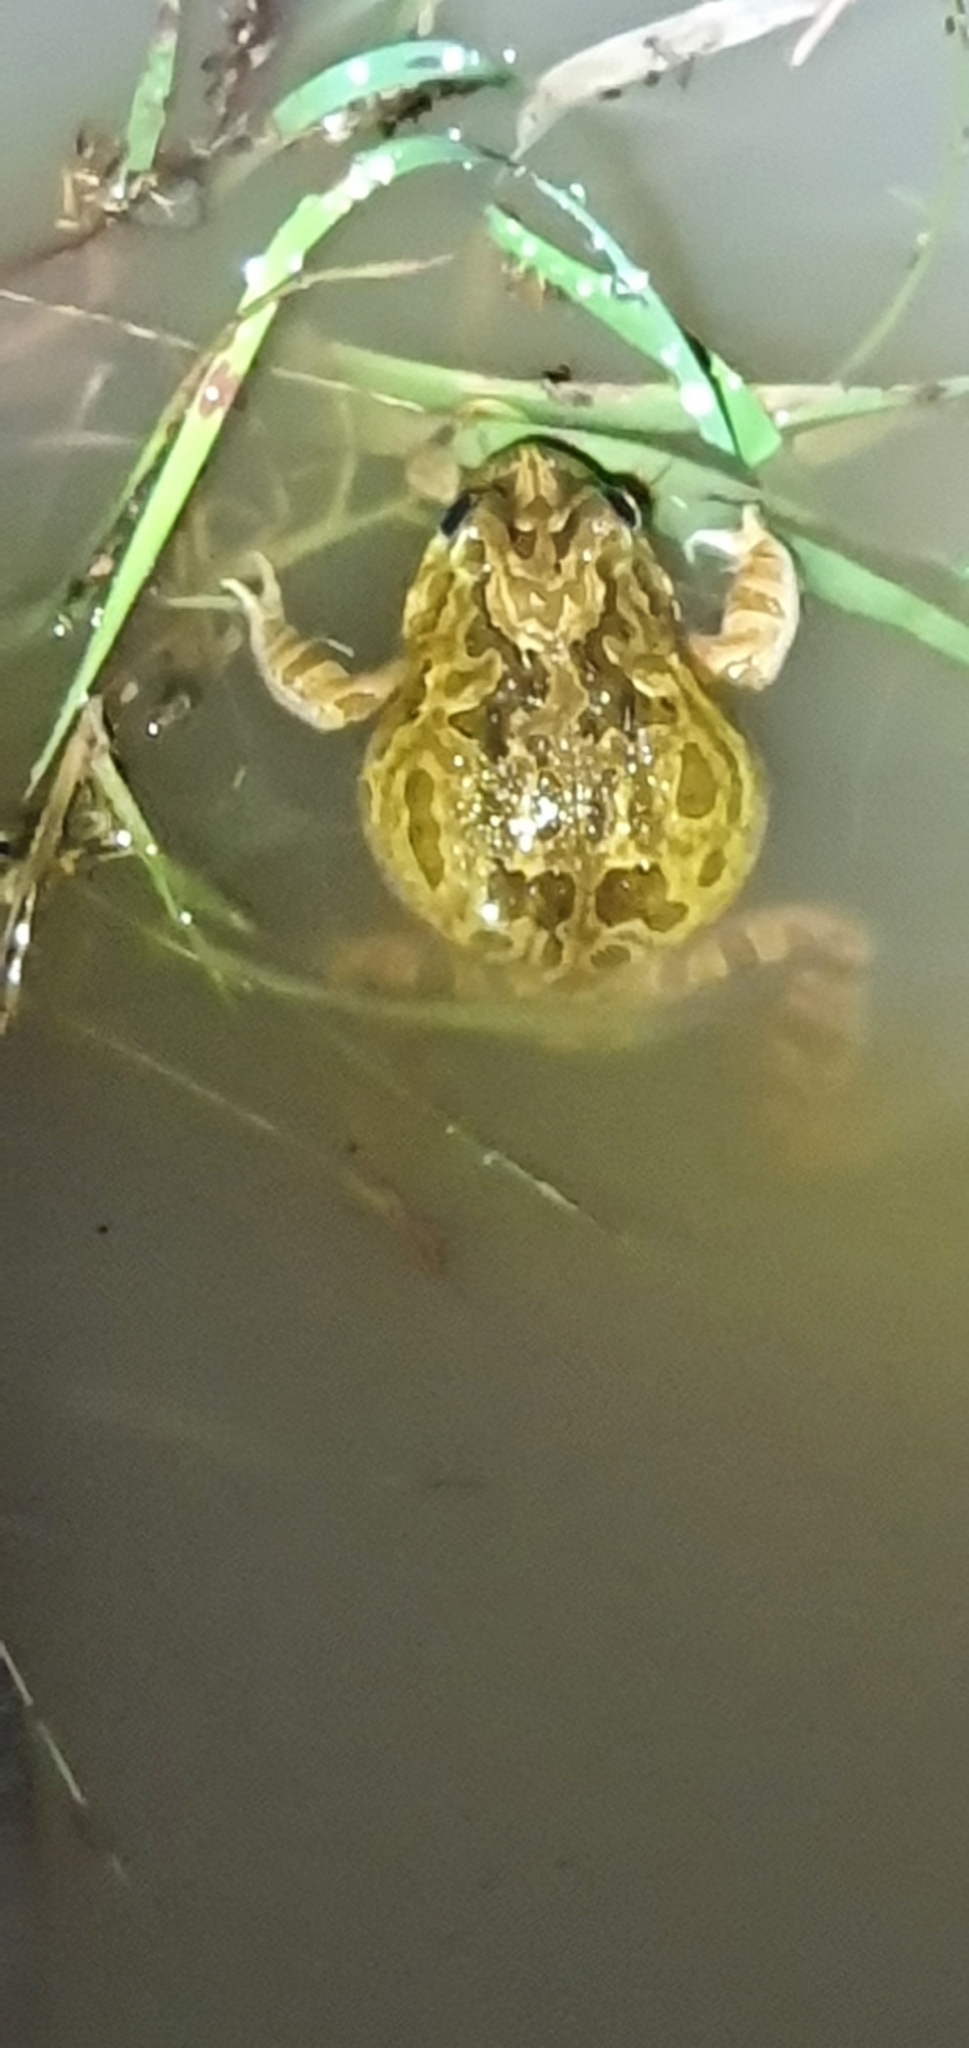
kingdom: Animalia
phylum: Chordata
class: Amphibia
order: Anura
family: Limnodynastidae
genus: Platyplectrum
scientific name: Platyplectrum ornatum
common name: Ornate burrowing frog
